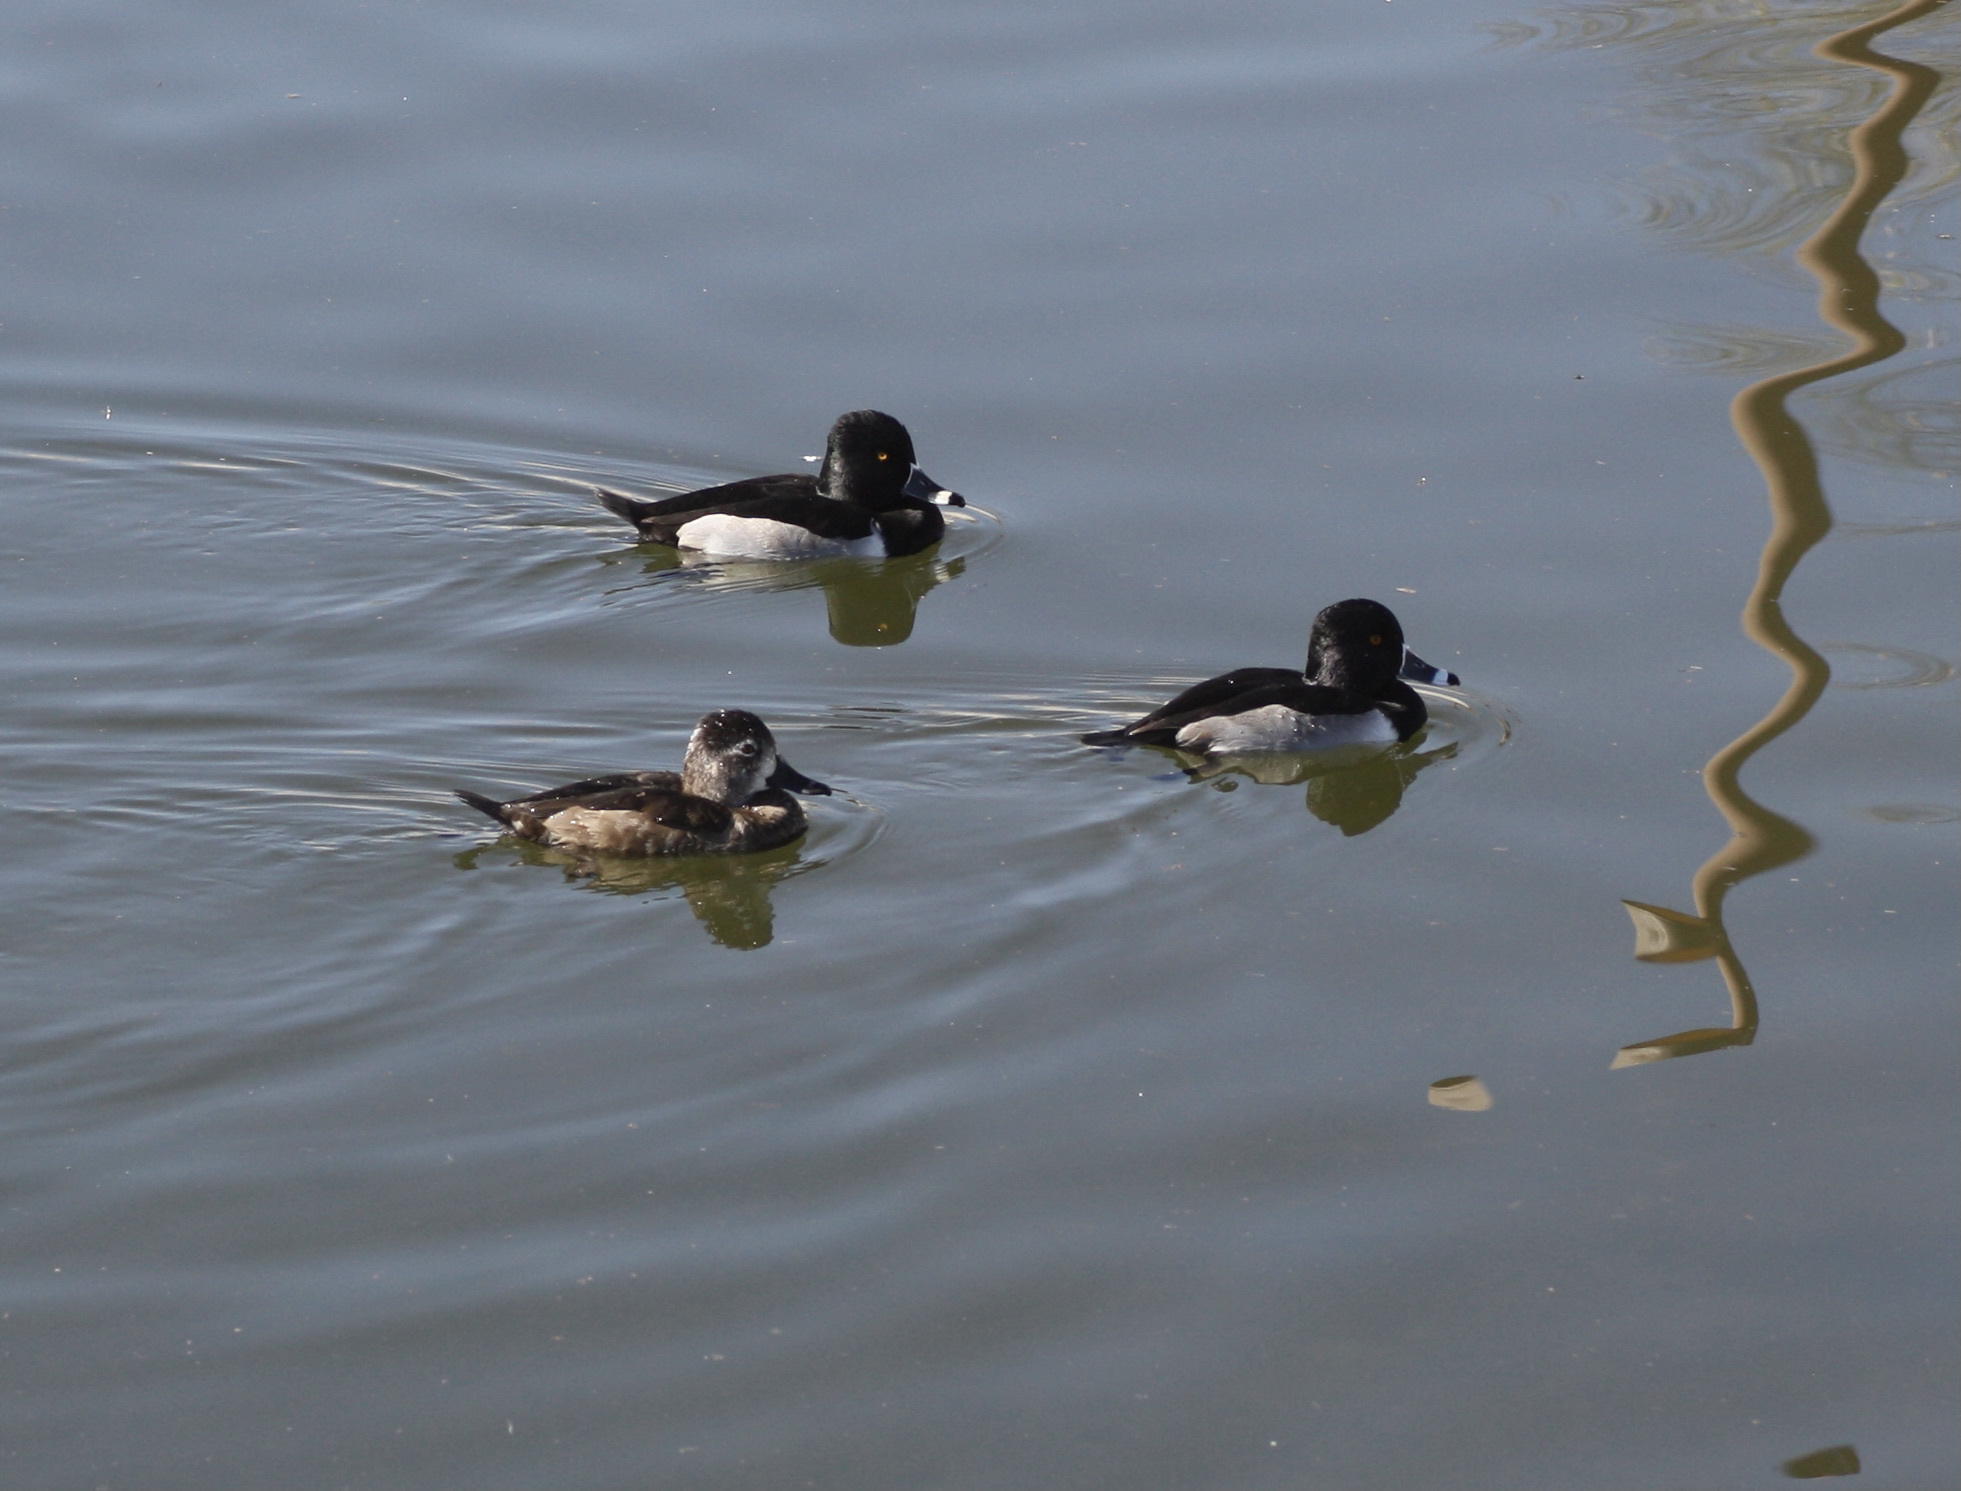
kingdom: Animalia
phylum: Chordata
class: Aves
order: Anseriformes
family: Anatidae
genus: Aythya
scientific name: Aythya collaris
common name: Ring-necked duck
